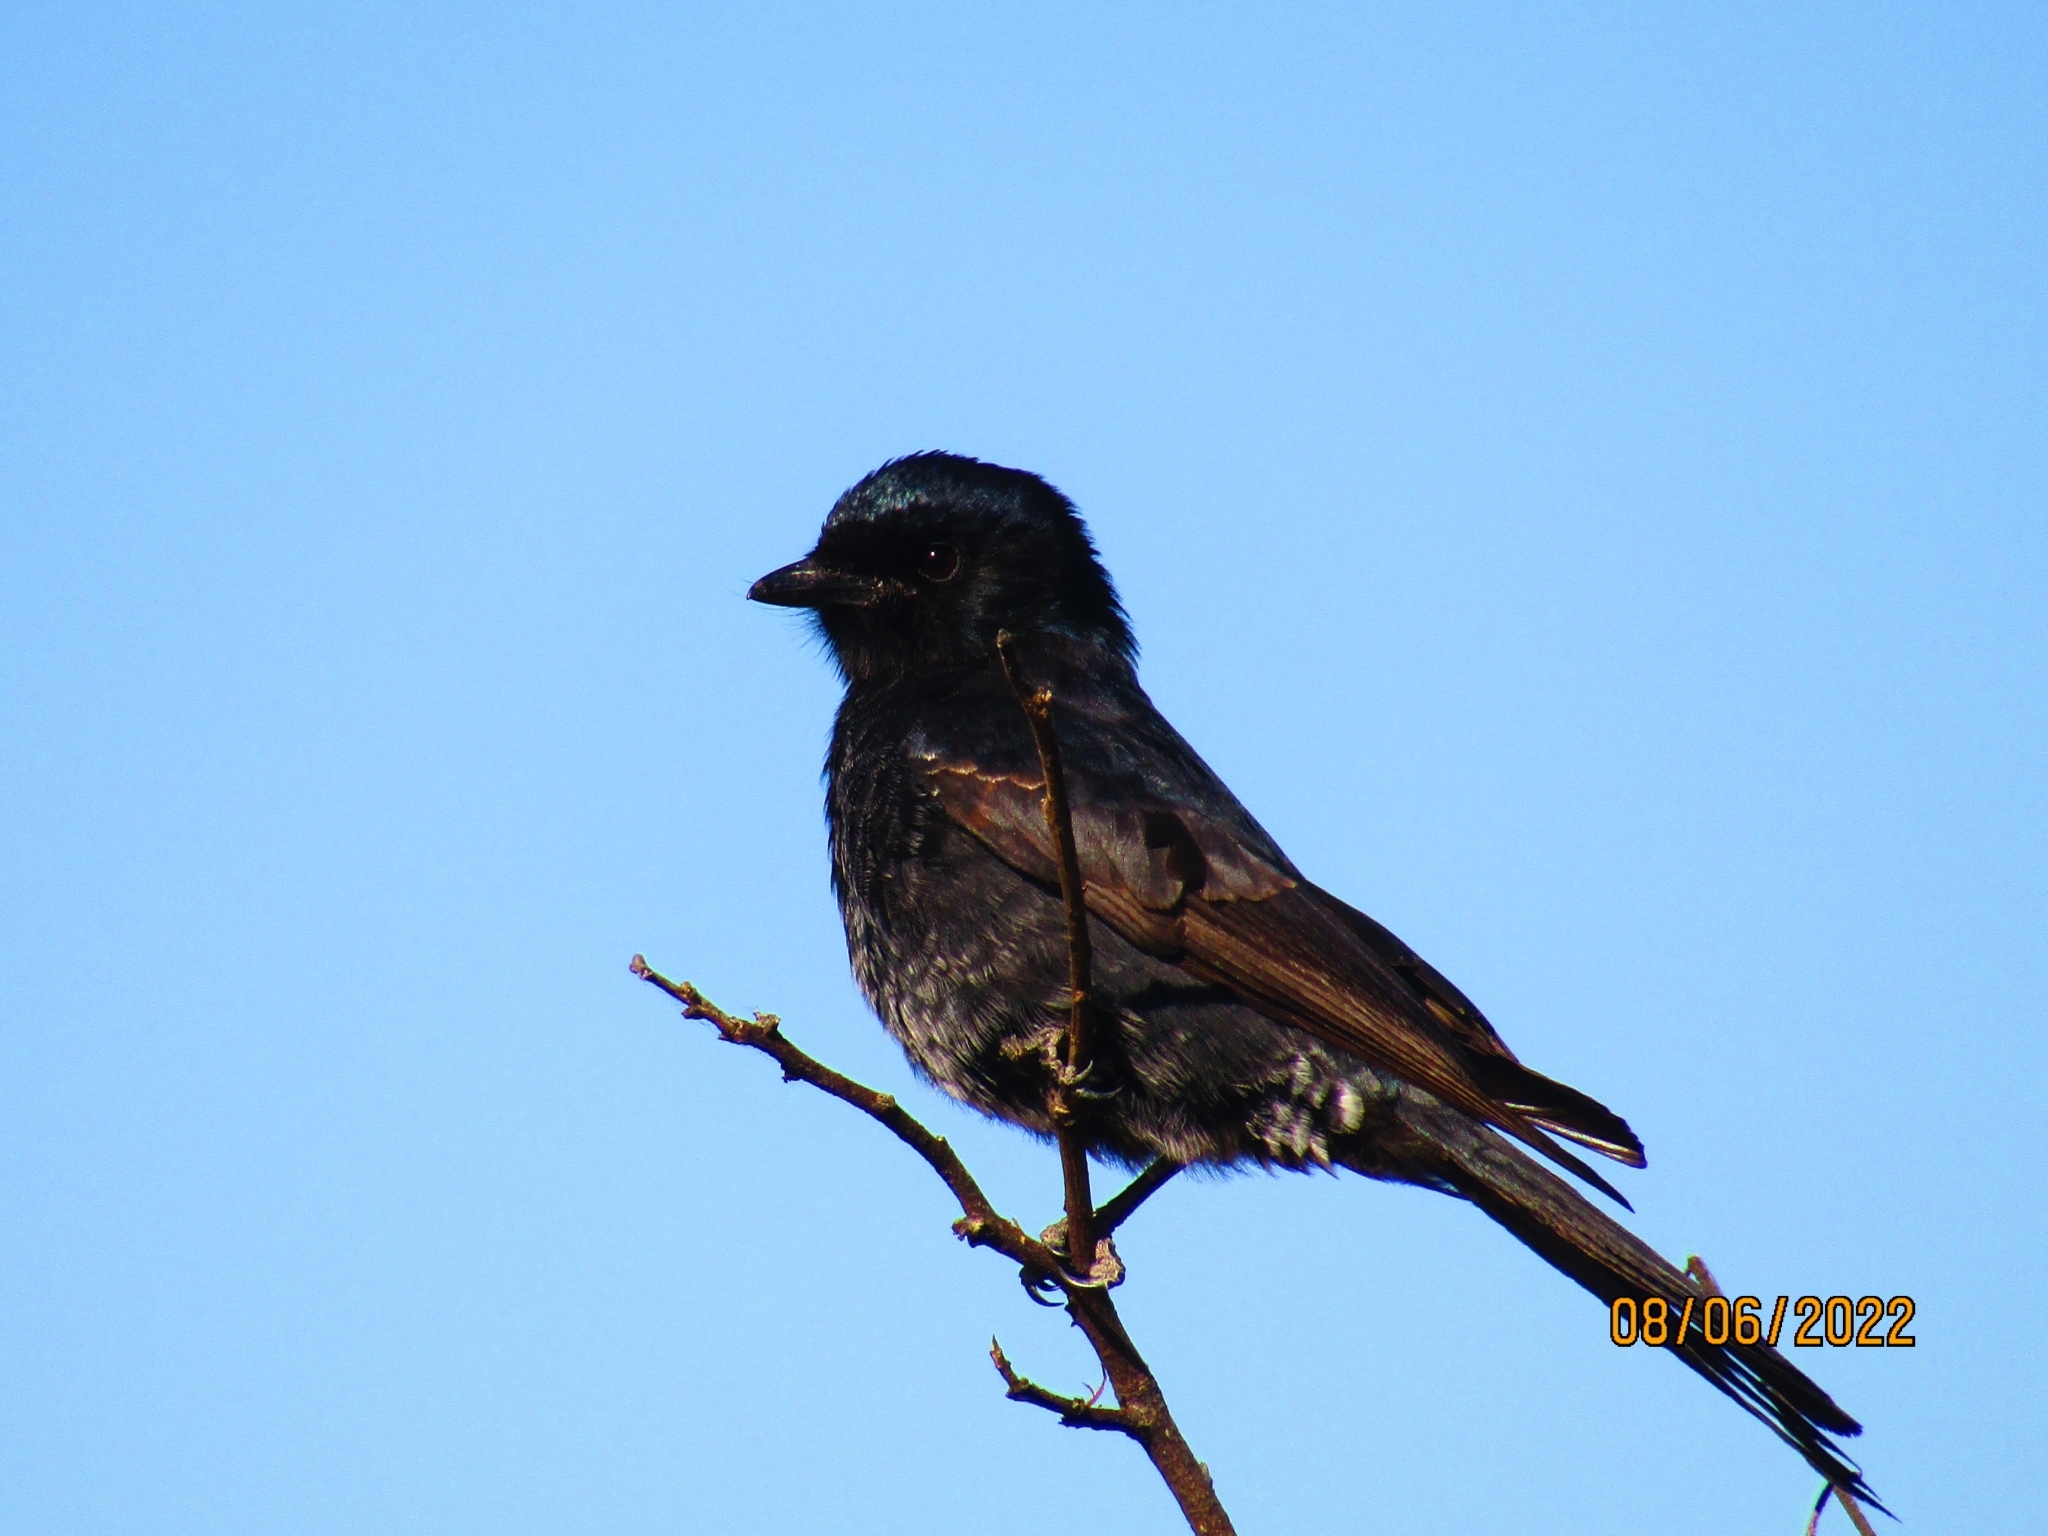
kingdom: Animalia
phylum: Chordata
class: Aves
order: Passeriformes
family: Dicruridae
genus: Dicrurus
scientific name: Dicrurus adsimilis
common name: Fork-tailed drongo
